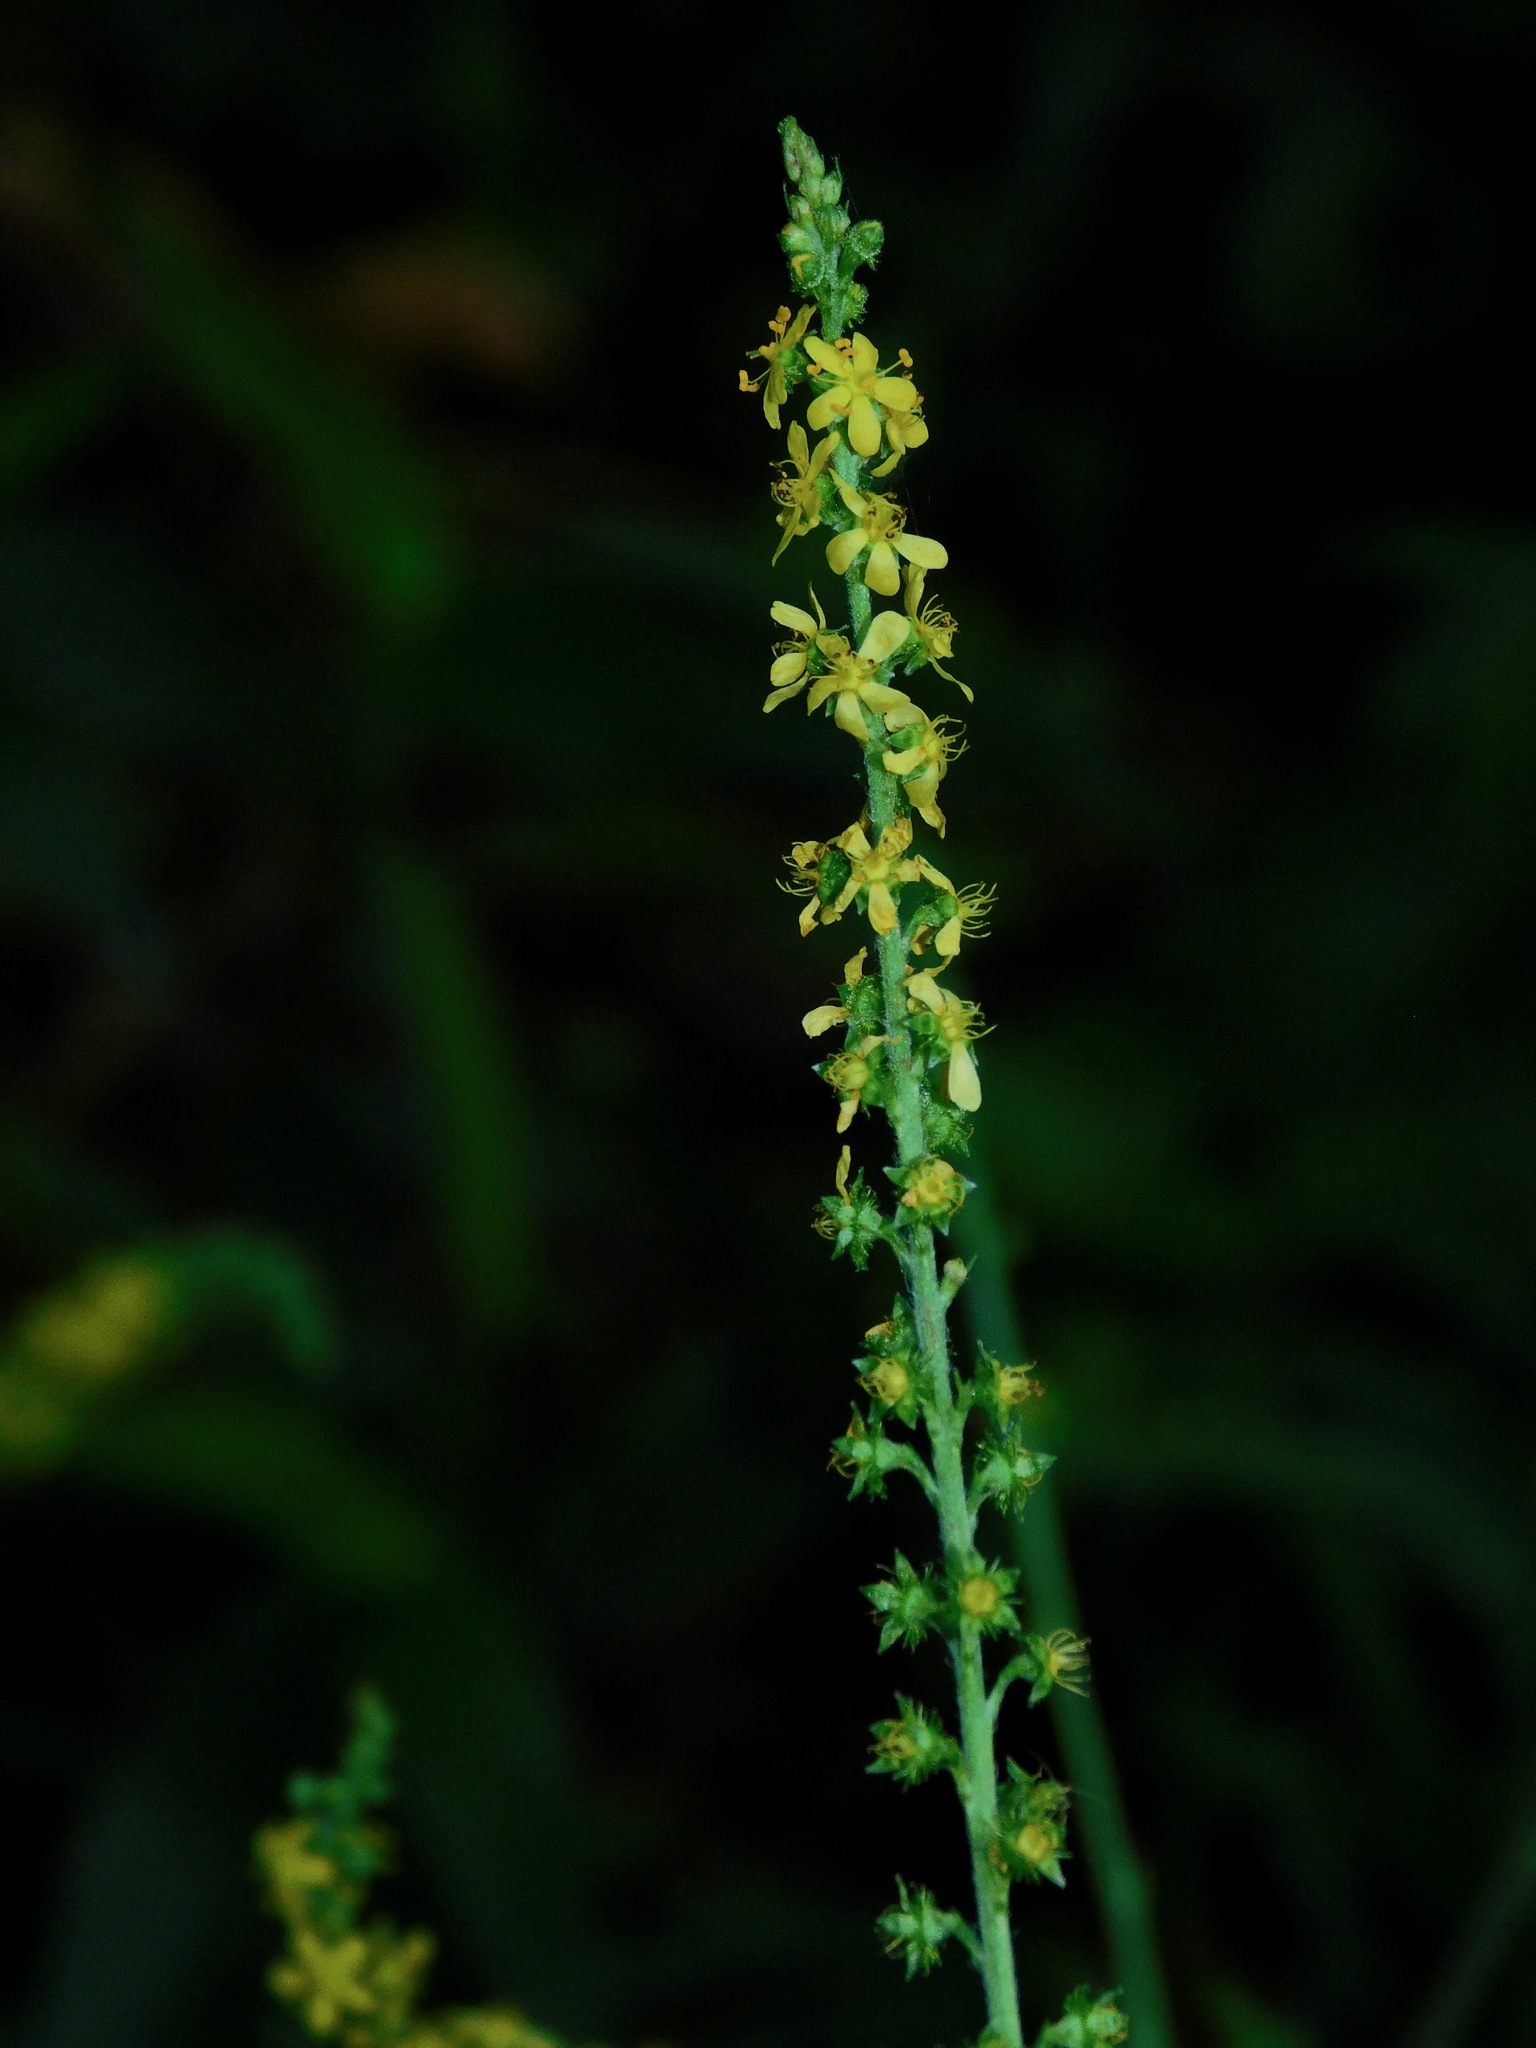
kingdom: Plantae
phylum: Tracheophyta
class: Magnoliopsida
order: Rosales
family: Rosaceae
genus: Agrimonia
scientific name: Agrimonia parviflora
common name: Harvest-lice
